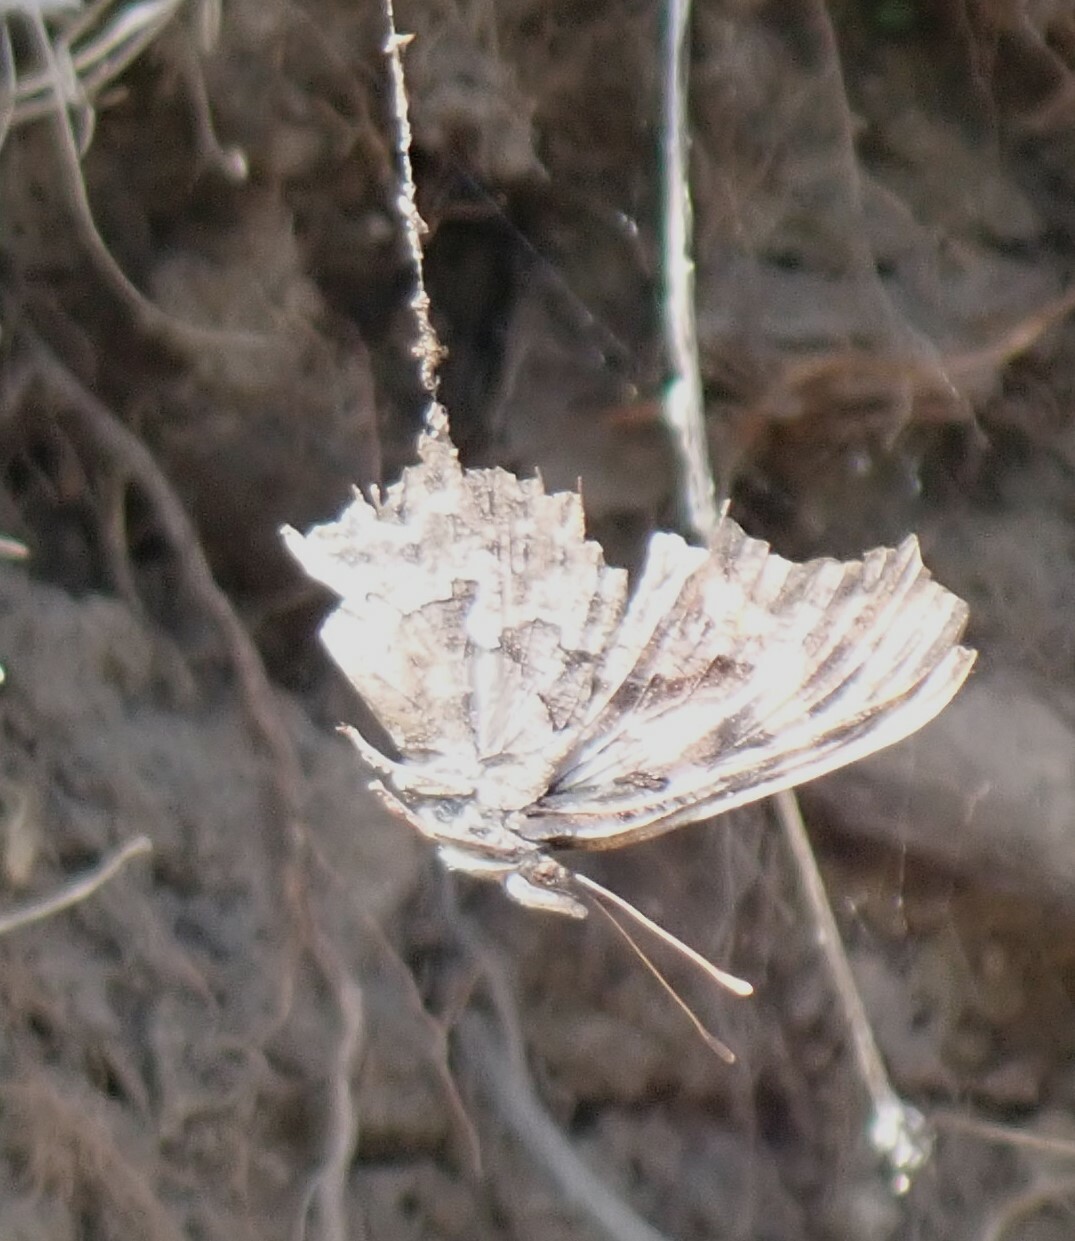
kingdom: Animalia
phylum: Arthropoda
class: Insecta
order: Lepidoptera
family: Nymphalidae
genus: Polygonia
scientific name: Polygonia satyrus
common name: Satyr angle wing
